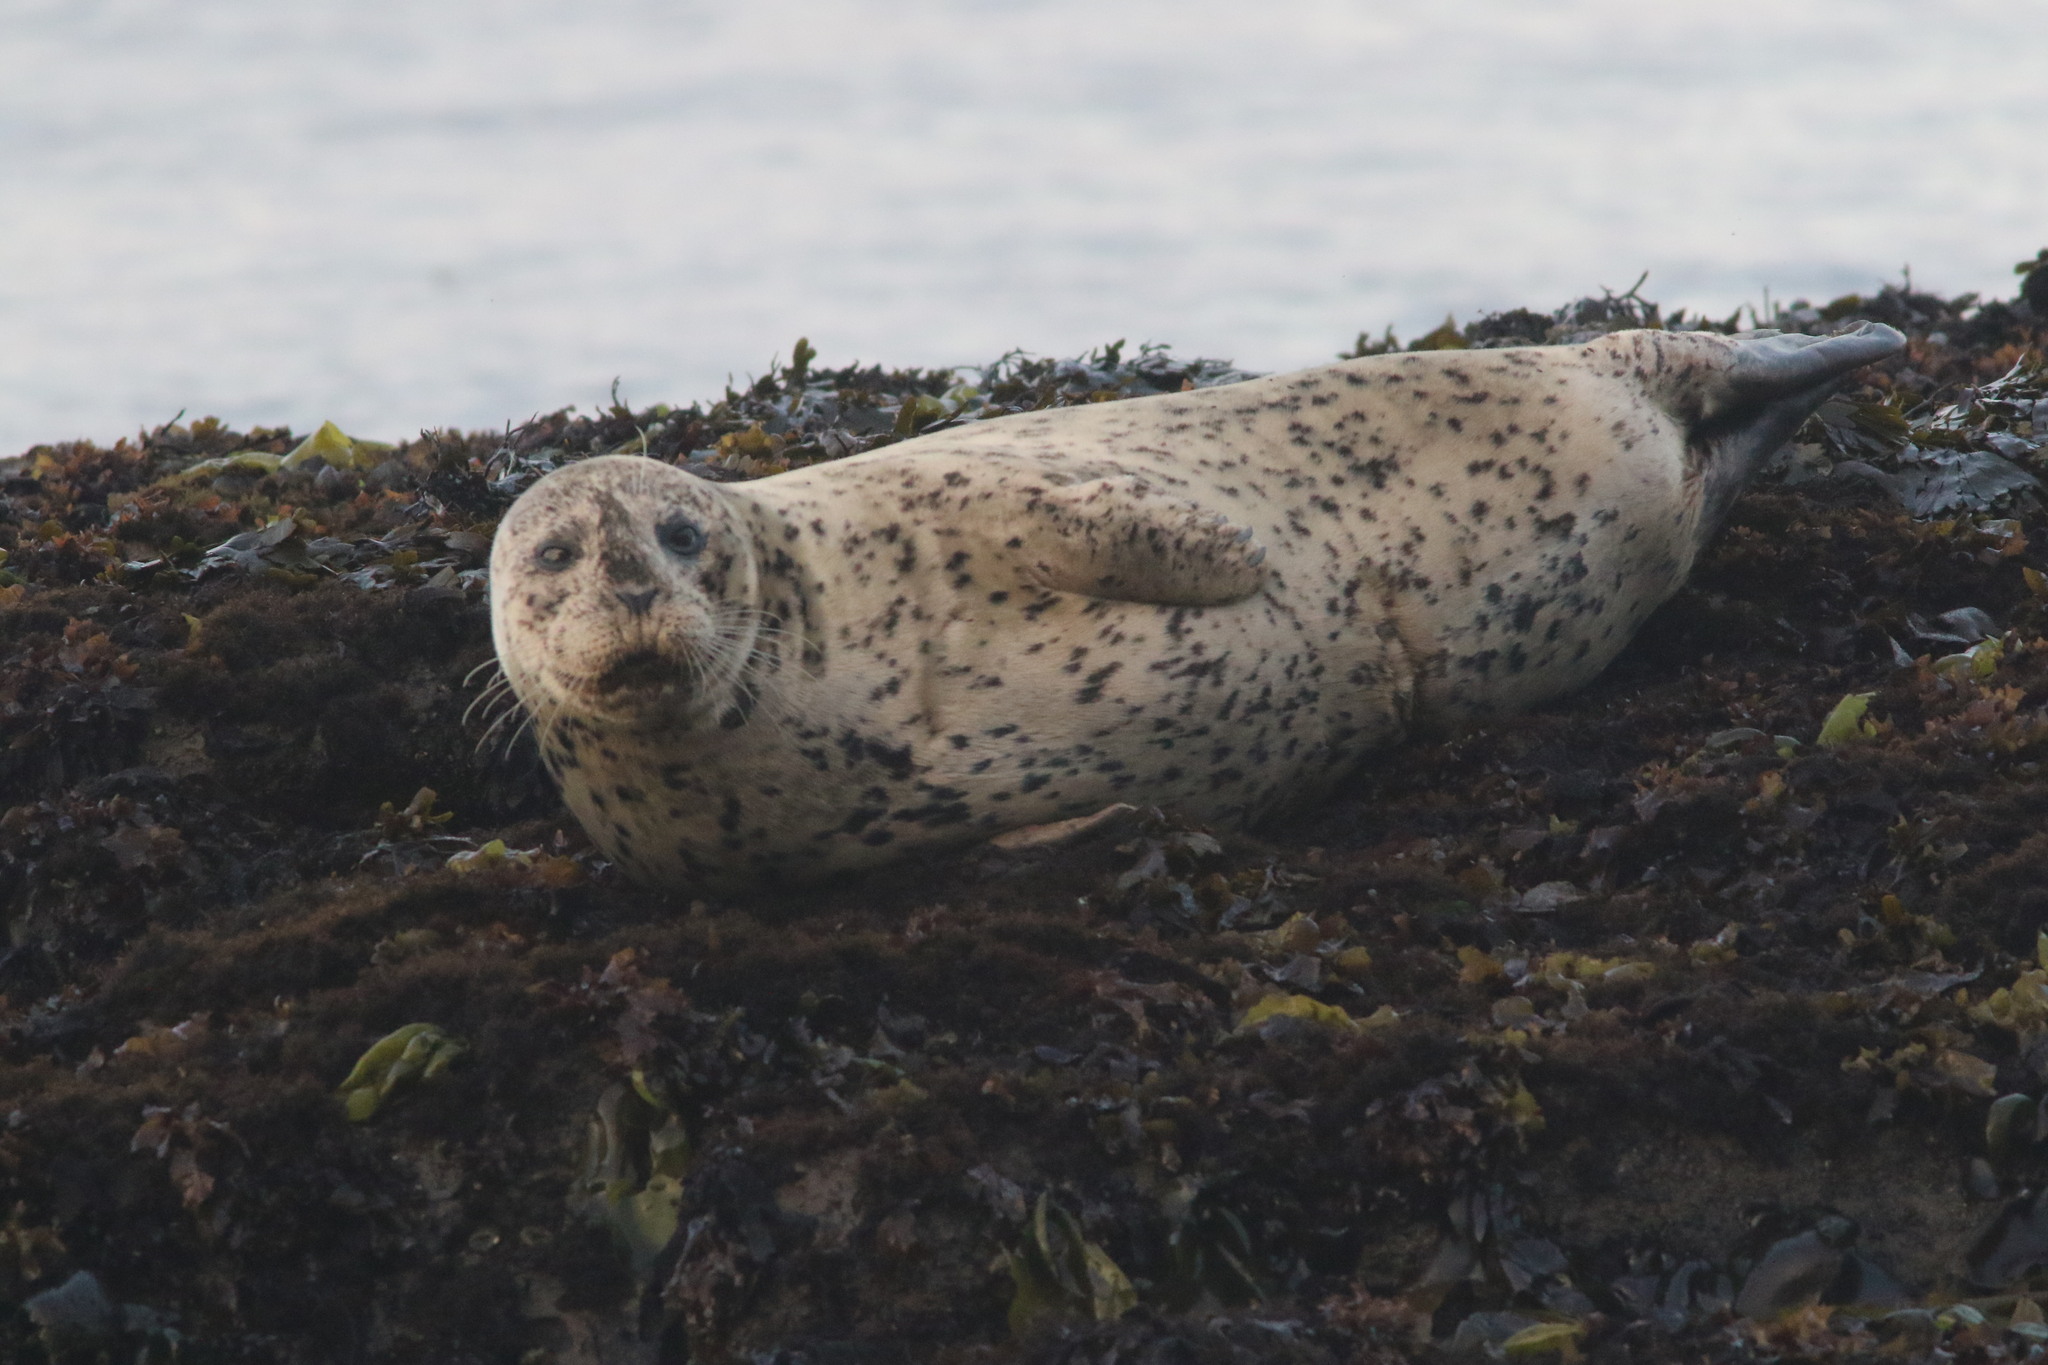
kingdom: Animalia
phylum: Chordata
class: Mammalia
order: Carnivora
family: Phocidae
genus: Phoca
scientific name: Phoca vitulina
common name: Harbor seal
